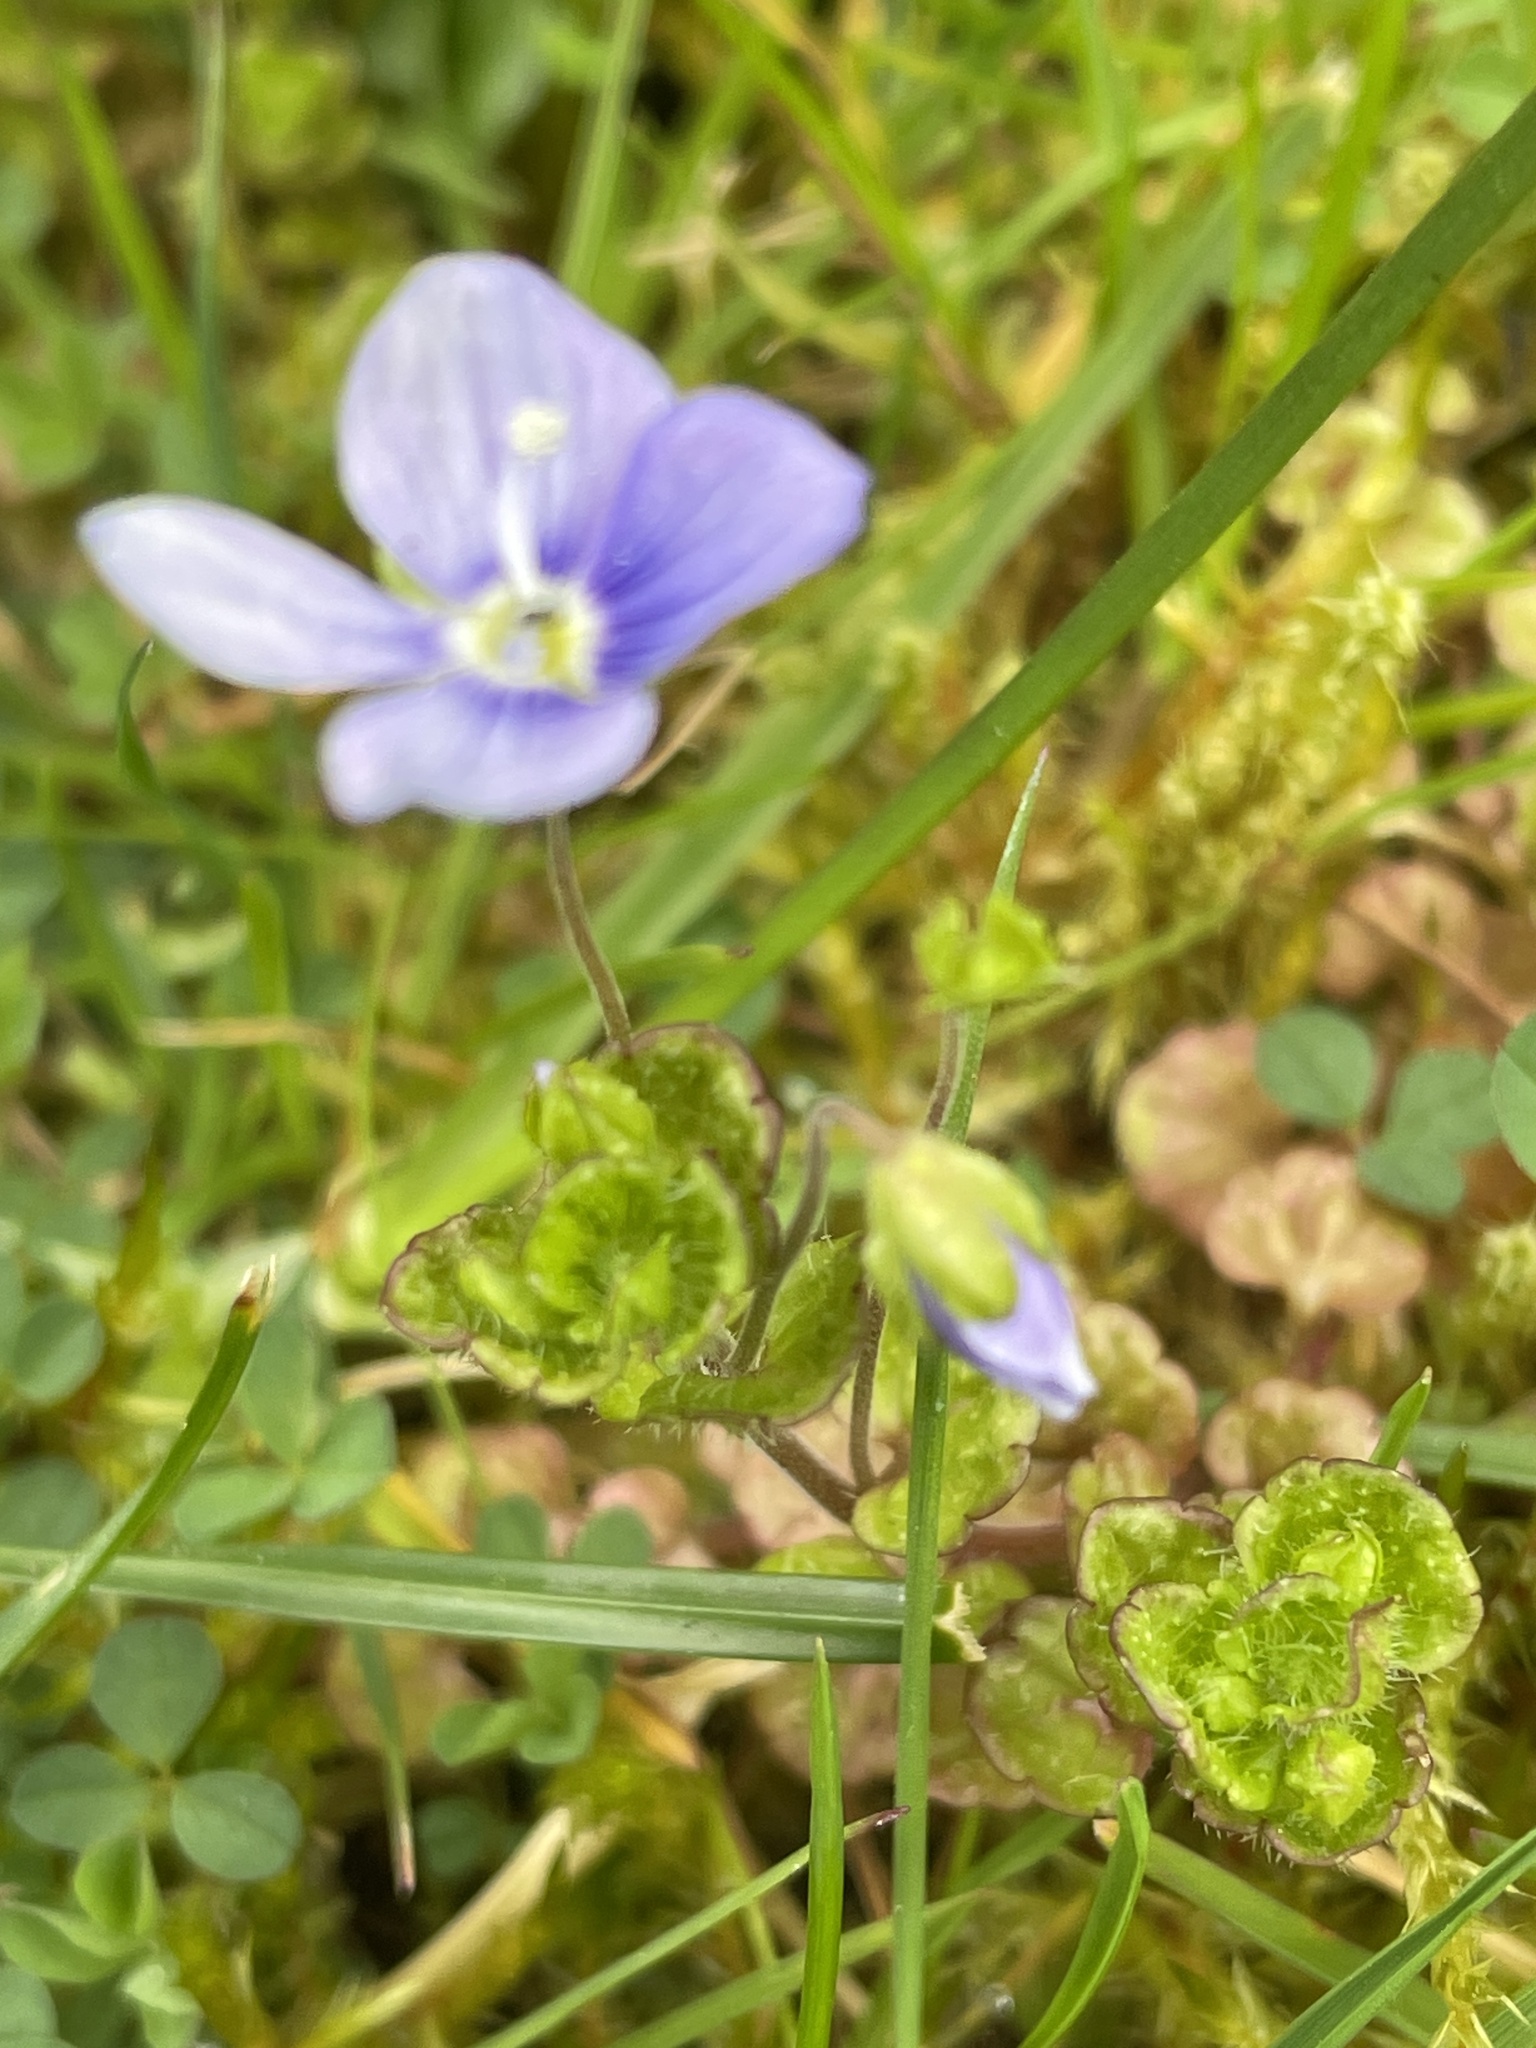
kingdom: Plantae
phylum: Tracheophyta
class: Magnoliopsida
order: Lamiales
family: Plantaginaceae
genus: Veronica
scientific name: Veronica filiformis
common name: Slender speedwell
